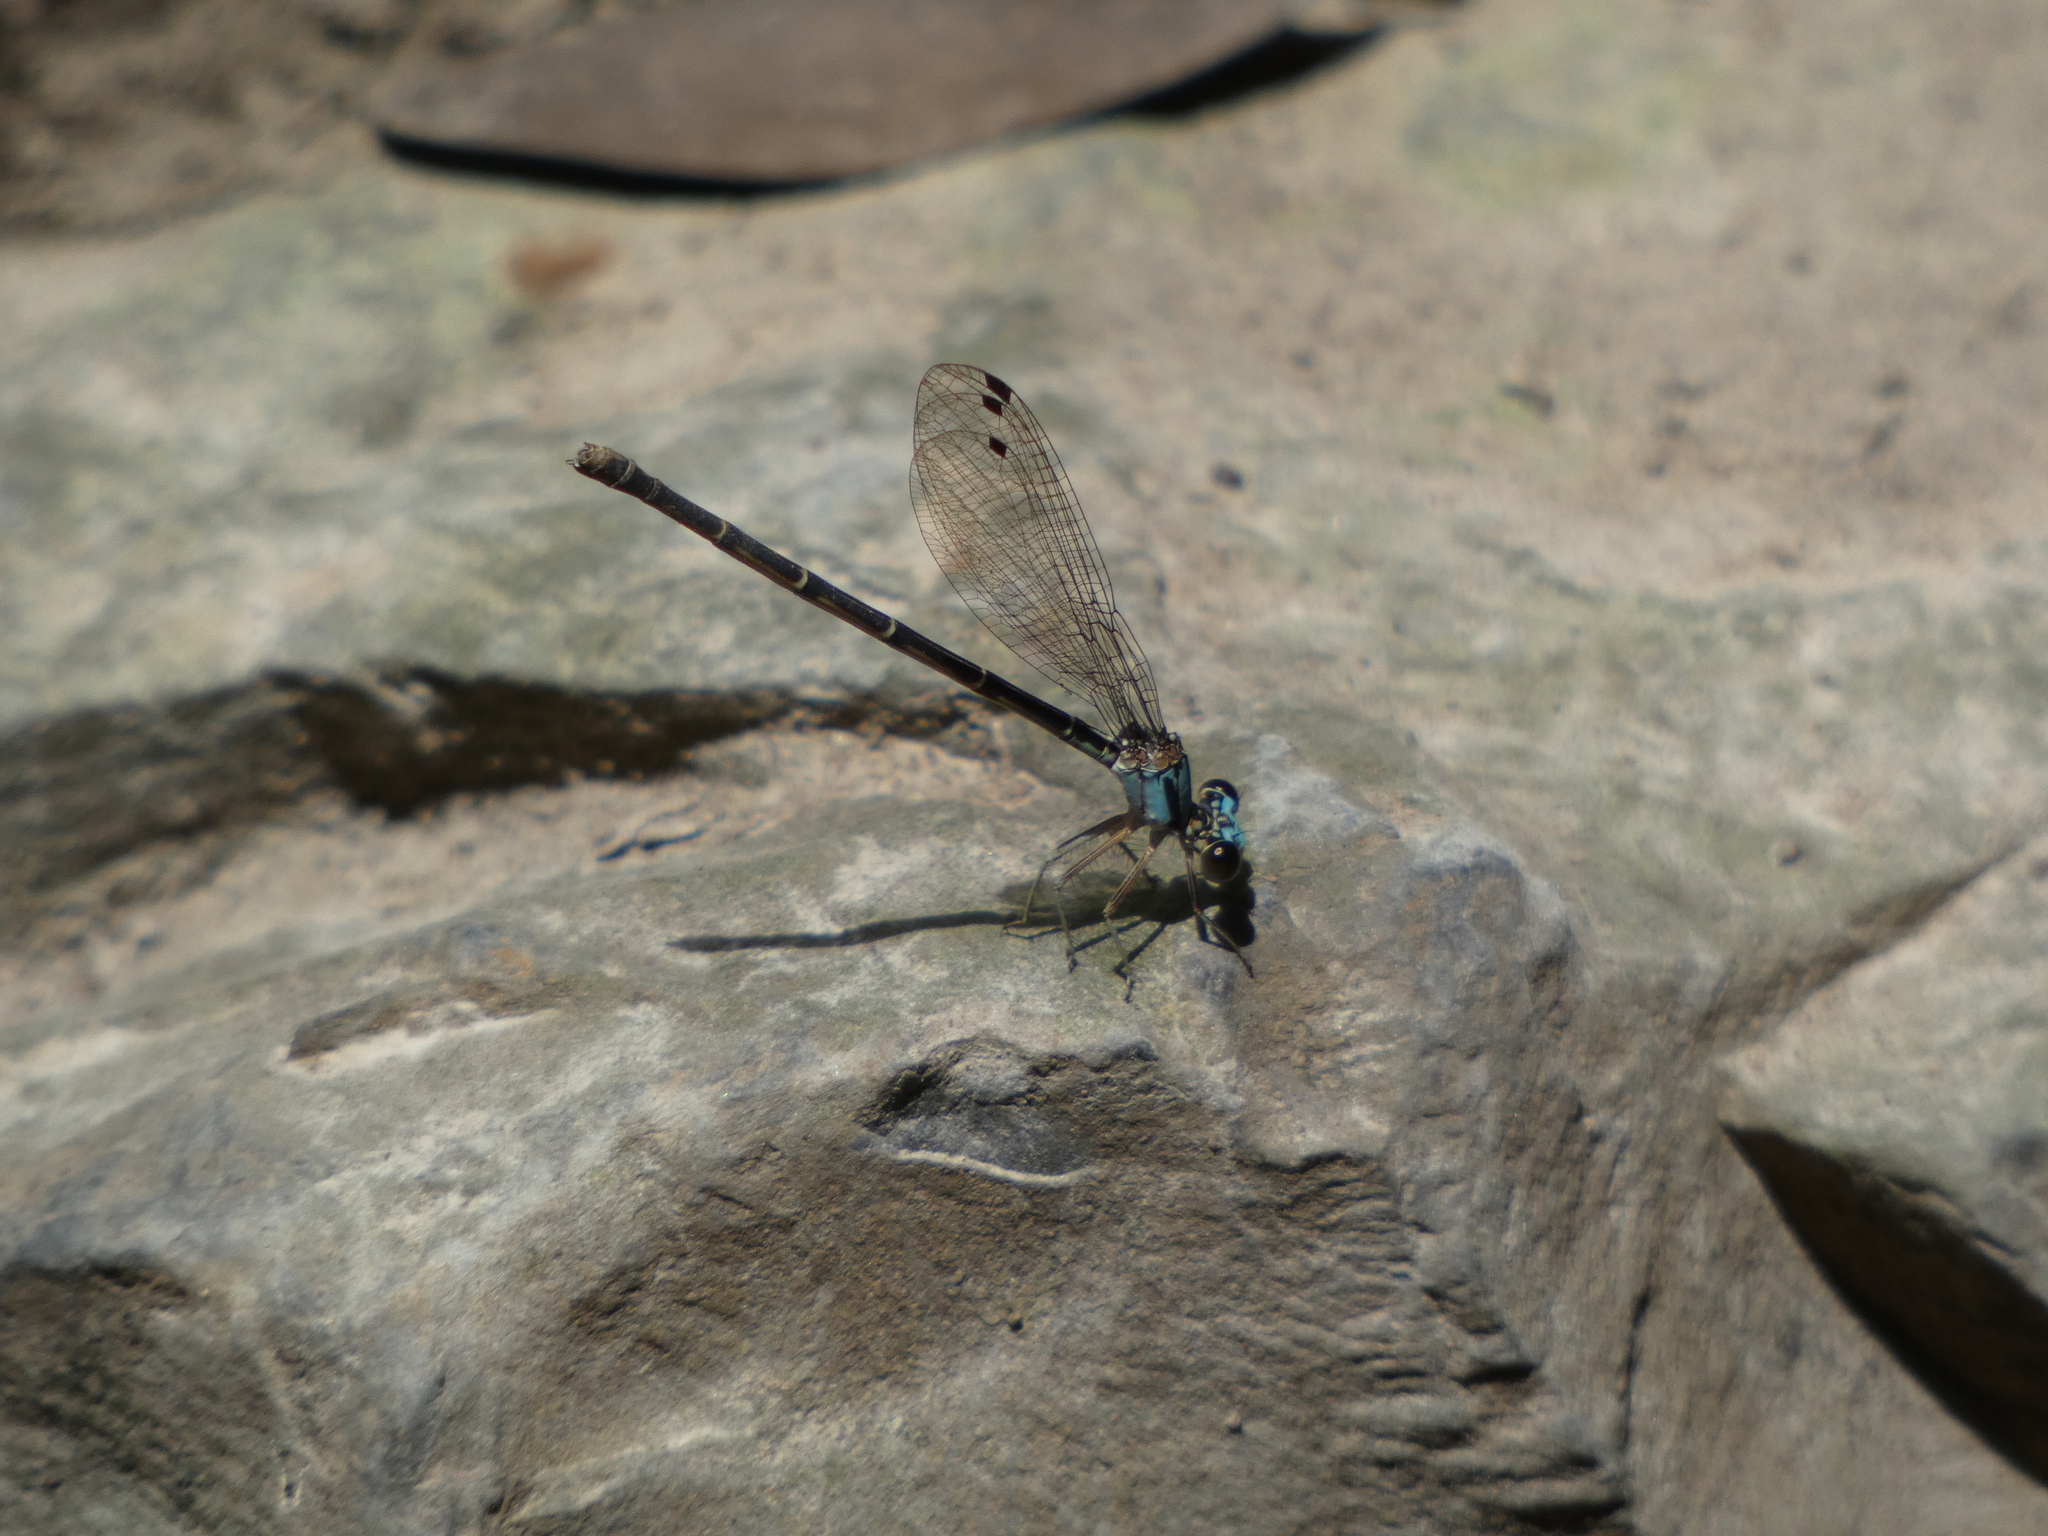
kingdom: Animalia
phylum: Arthropoda
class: Insecta
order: Odonata
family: Coenagrionidae
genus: Argia
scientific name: Argia tibialis
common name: Blue-tipped dancer
